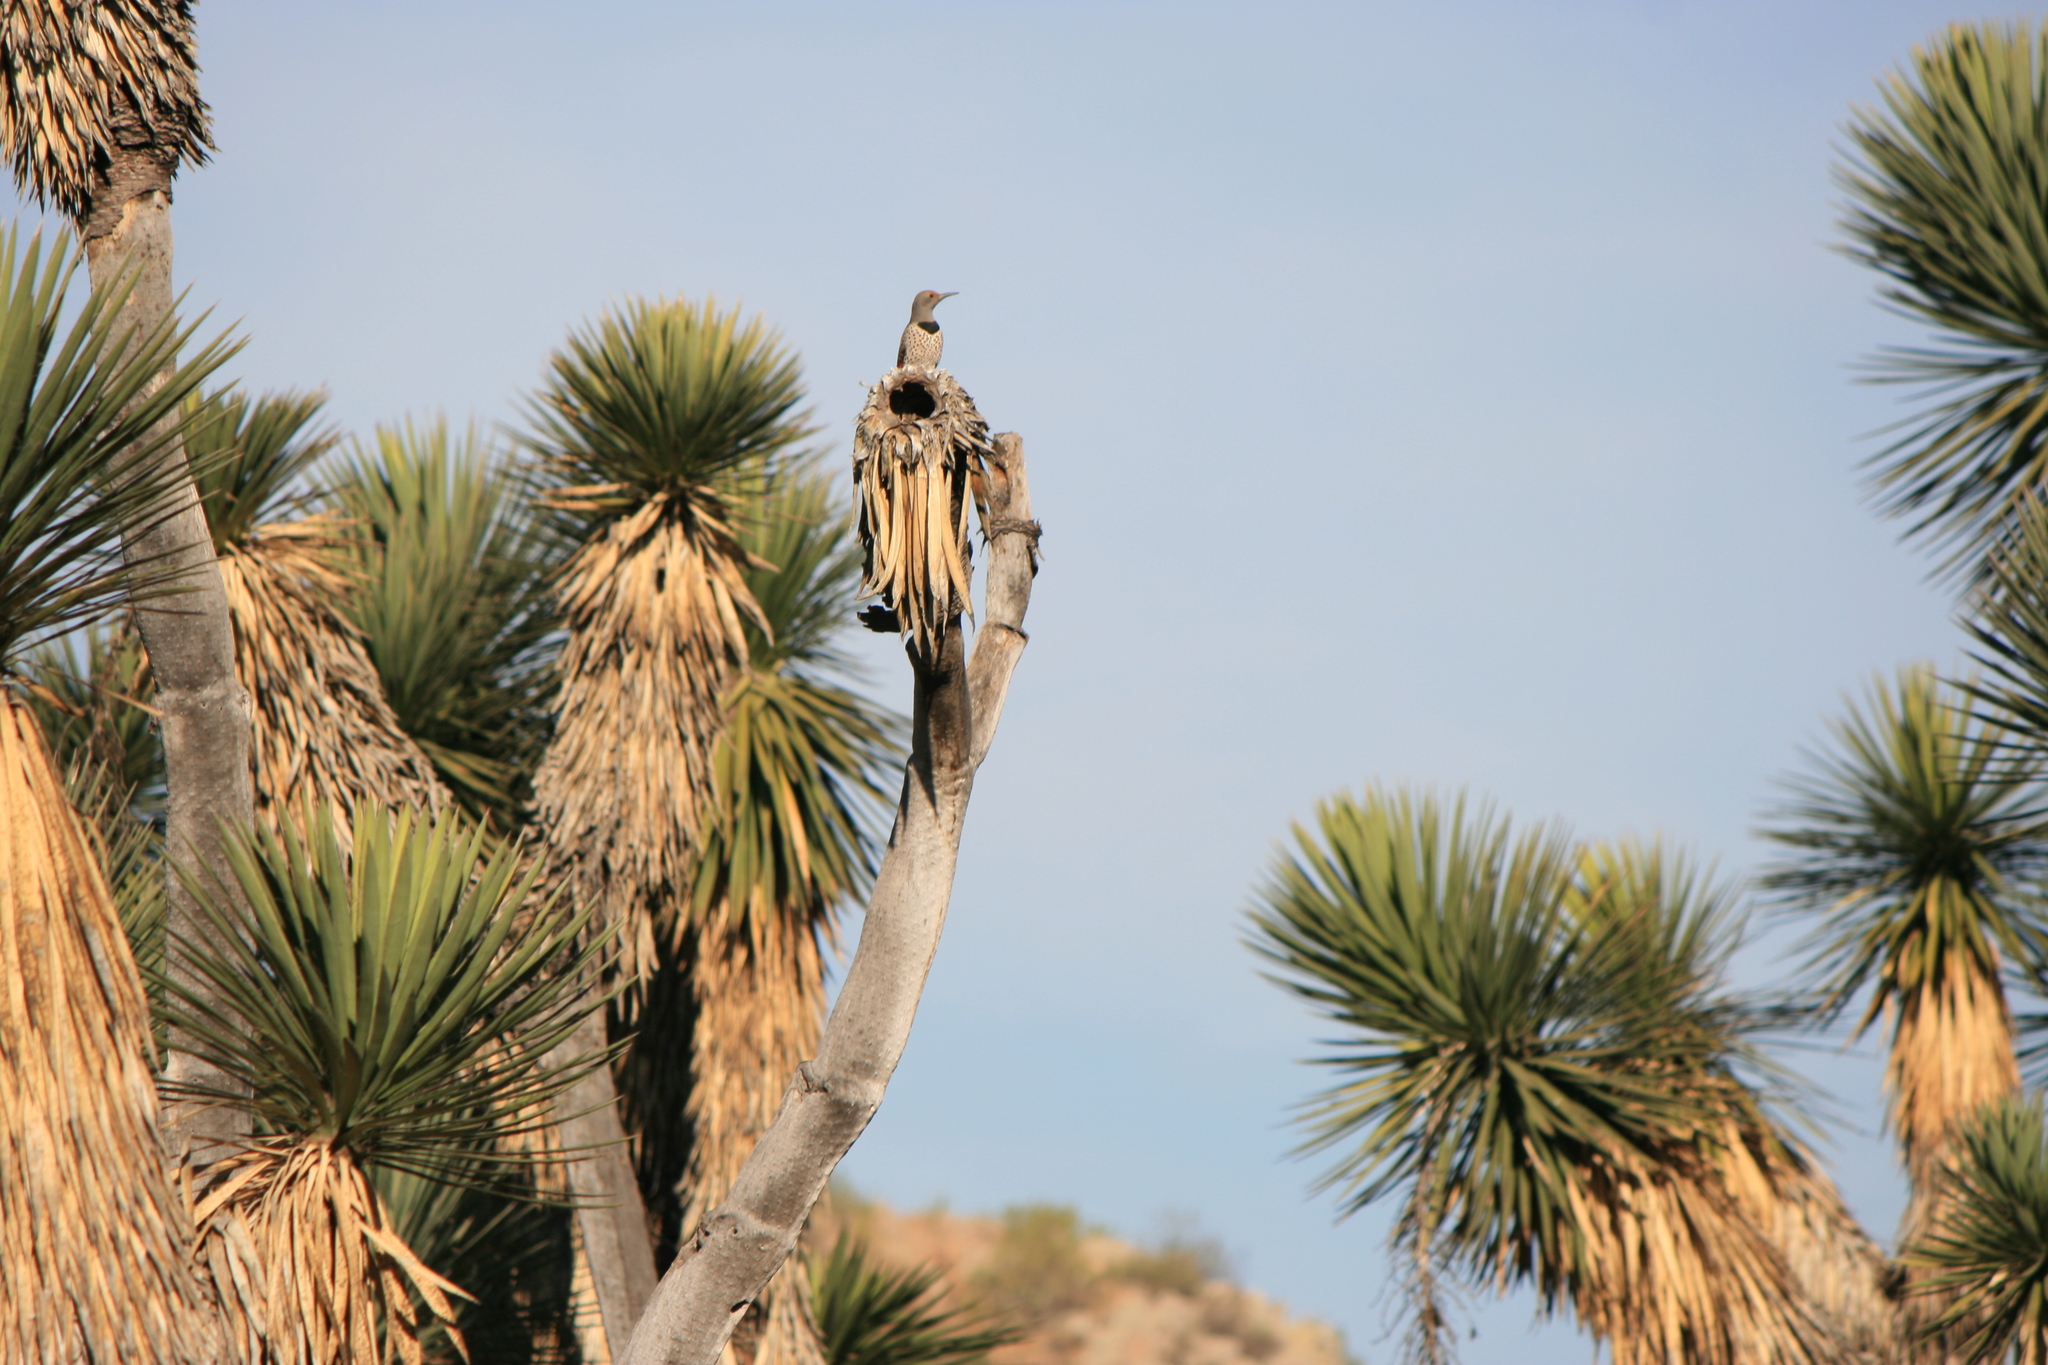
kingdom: Animalia
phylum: Chordata
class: Aves
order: Piciformes
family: Picidae
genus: Colaptes
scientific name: Colaptes auratus
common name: Northern flicker
